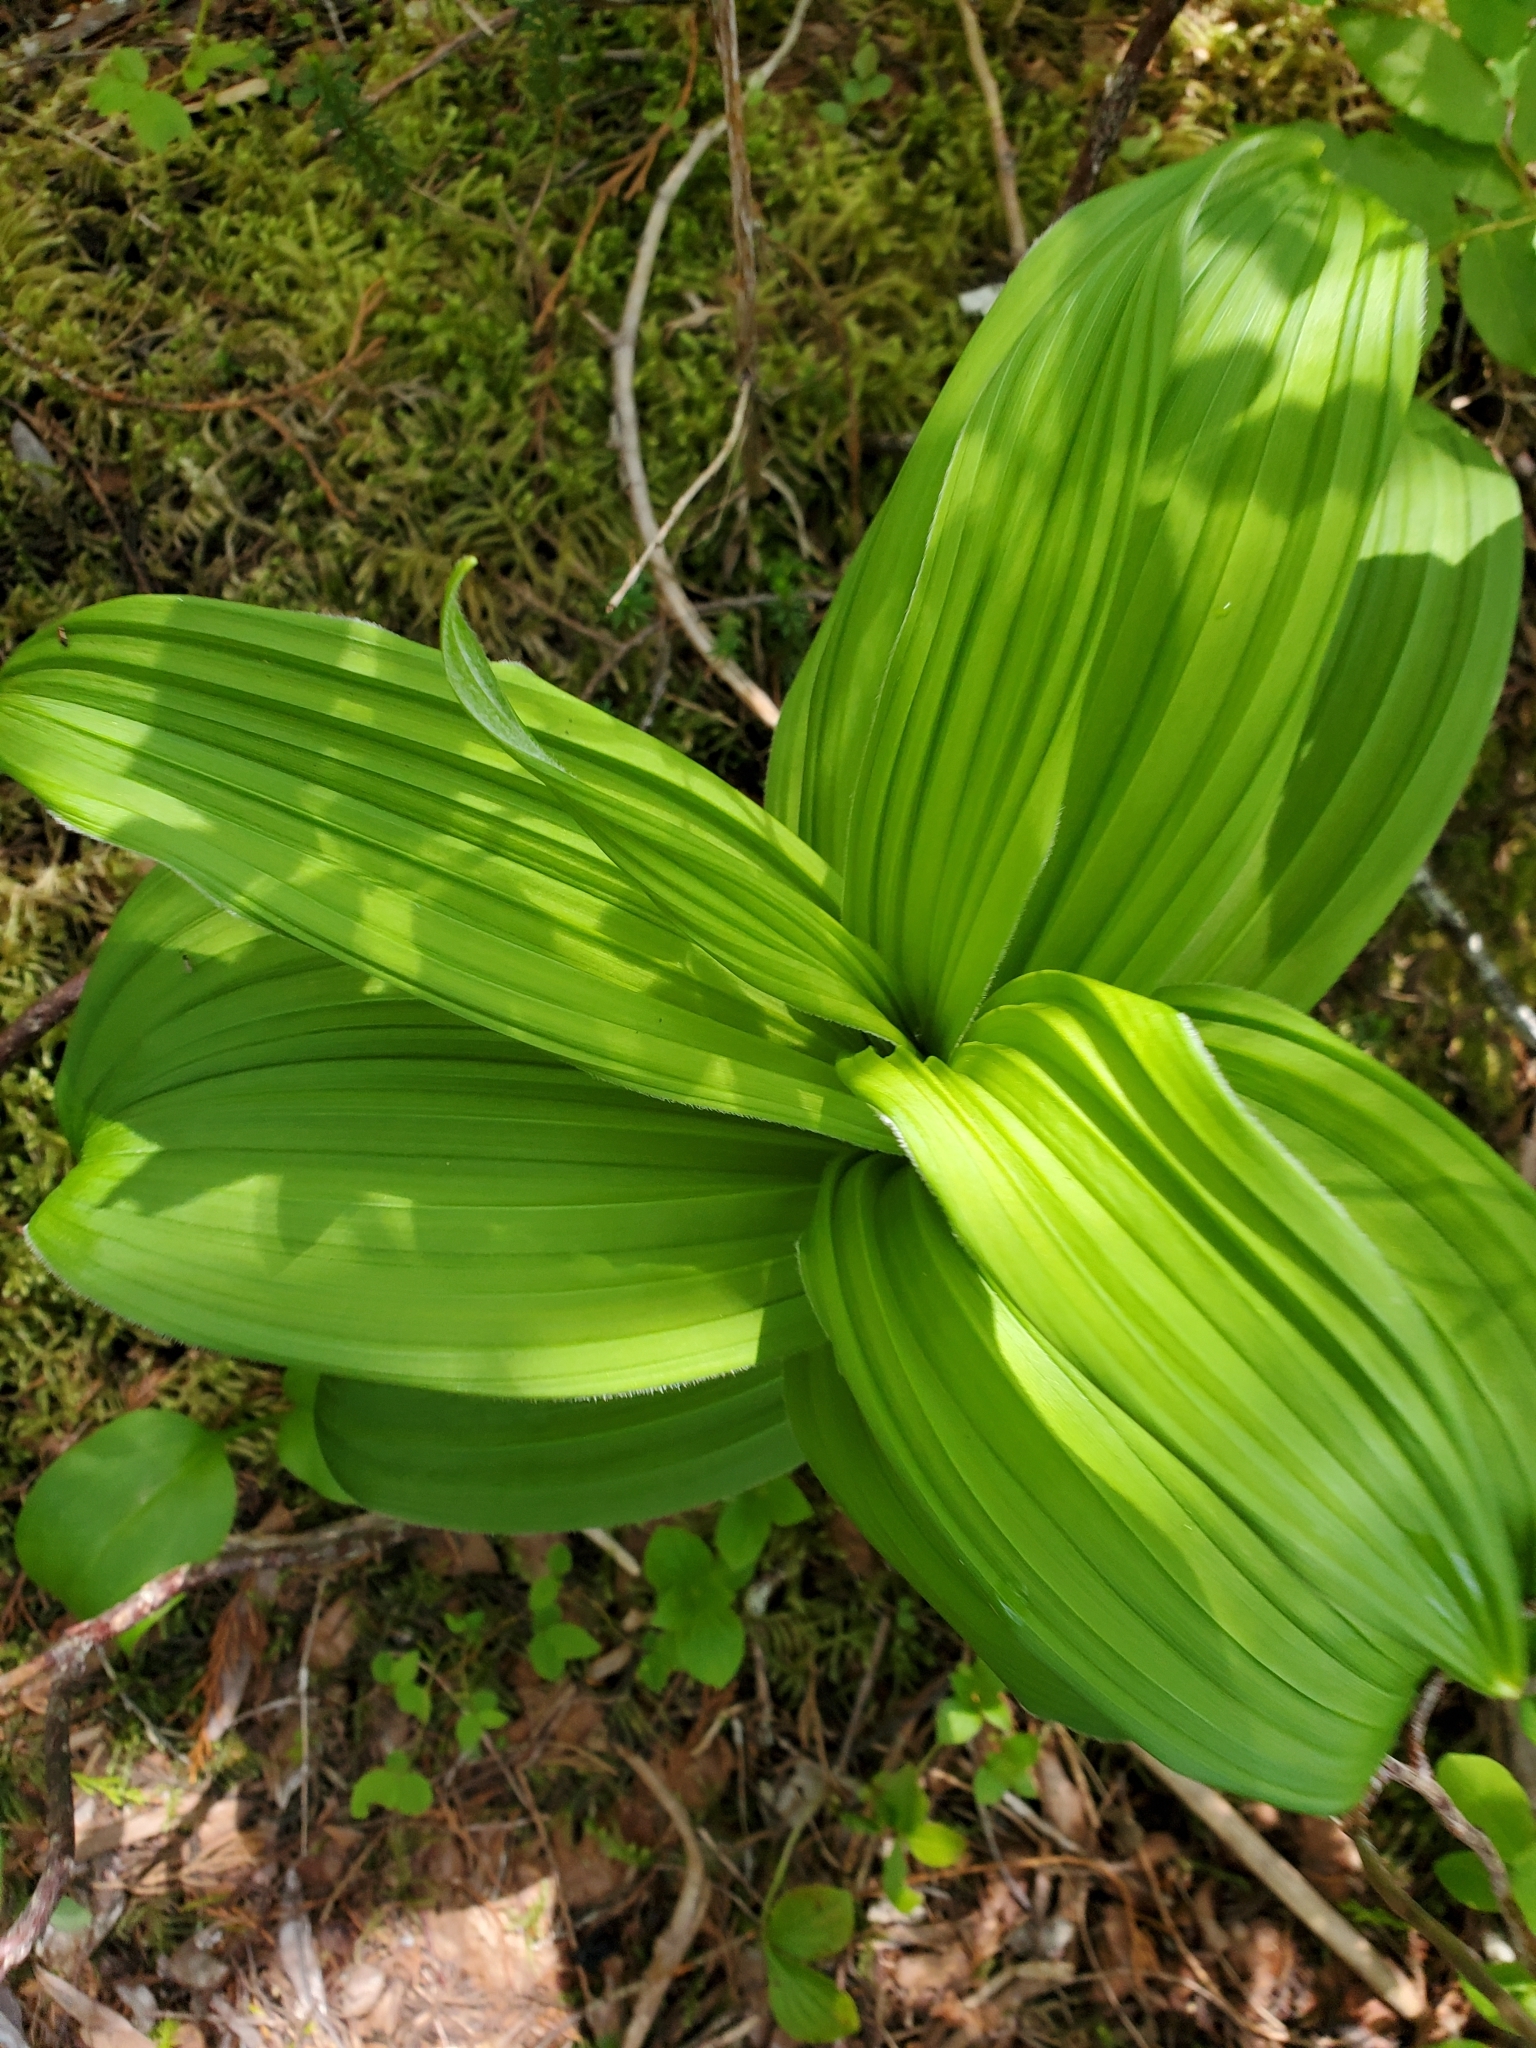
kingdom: Plantae
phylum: Tracheophyta
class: Liliopsida
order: Liliales
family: Melanthiaceae
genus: Veratrum
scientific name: Veratrum viride
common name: American false hellebore
